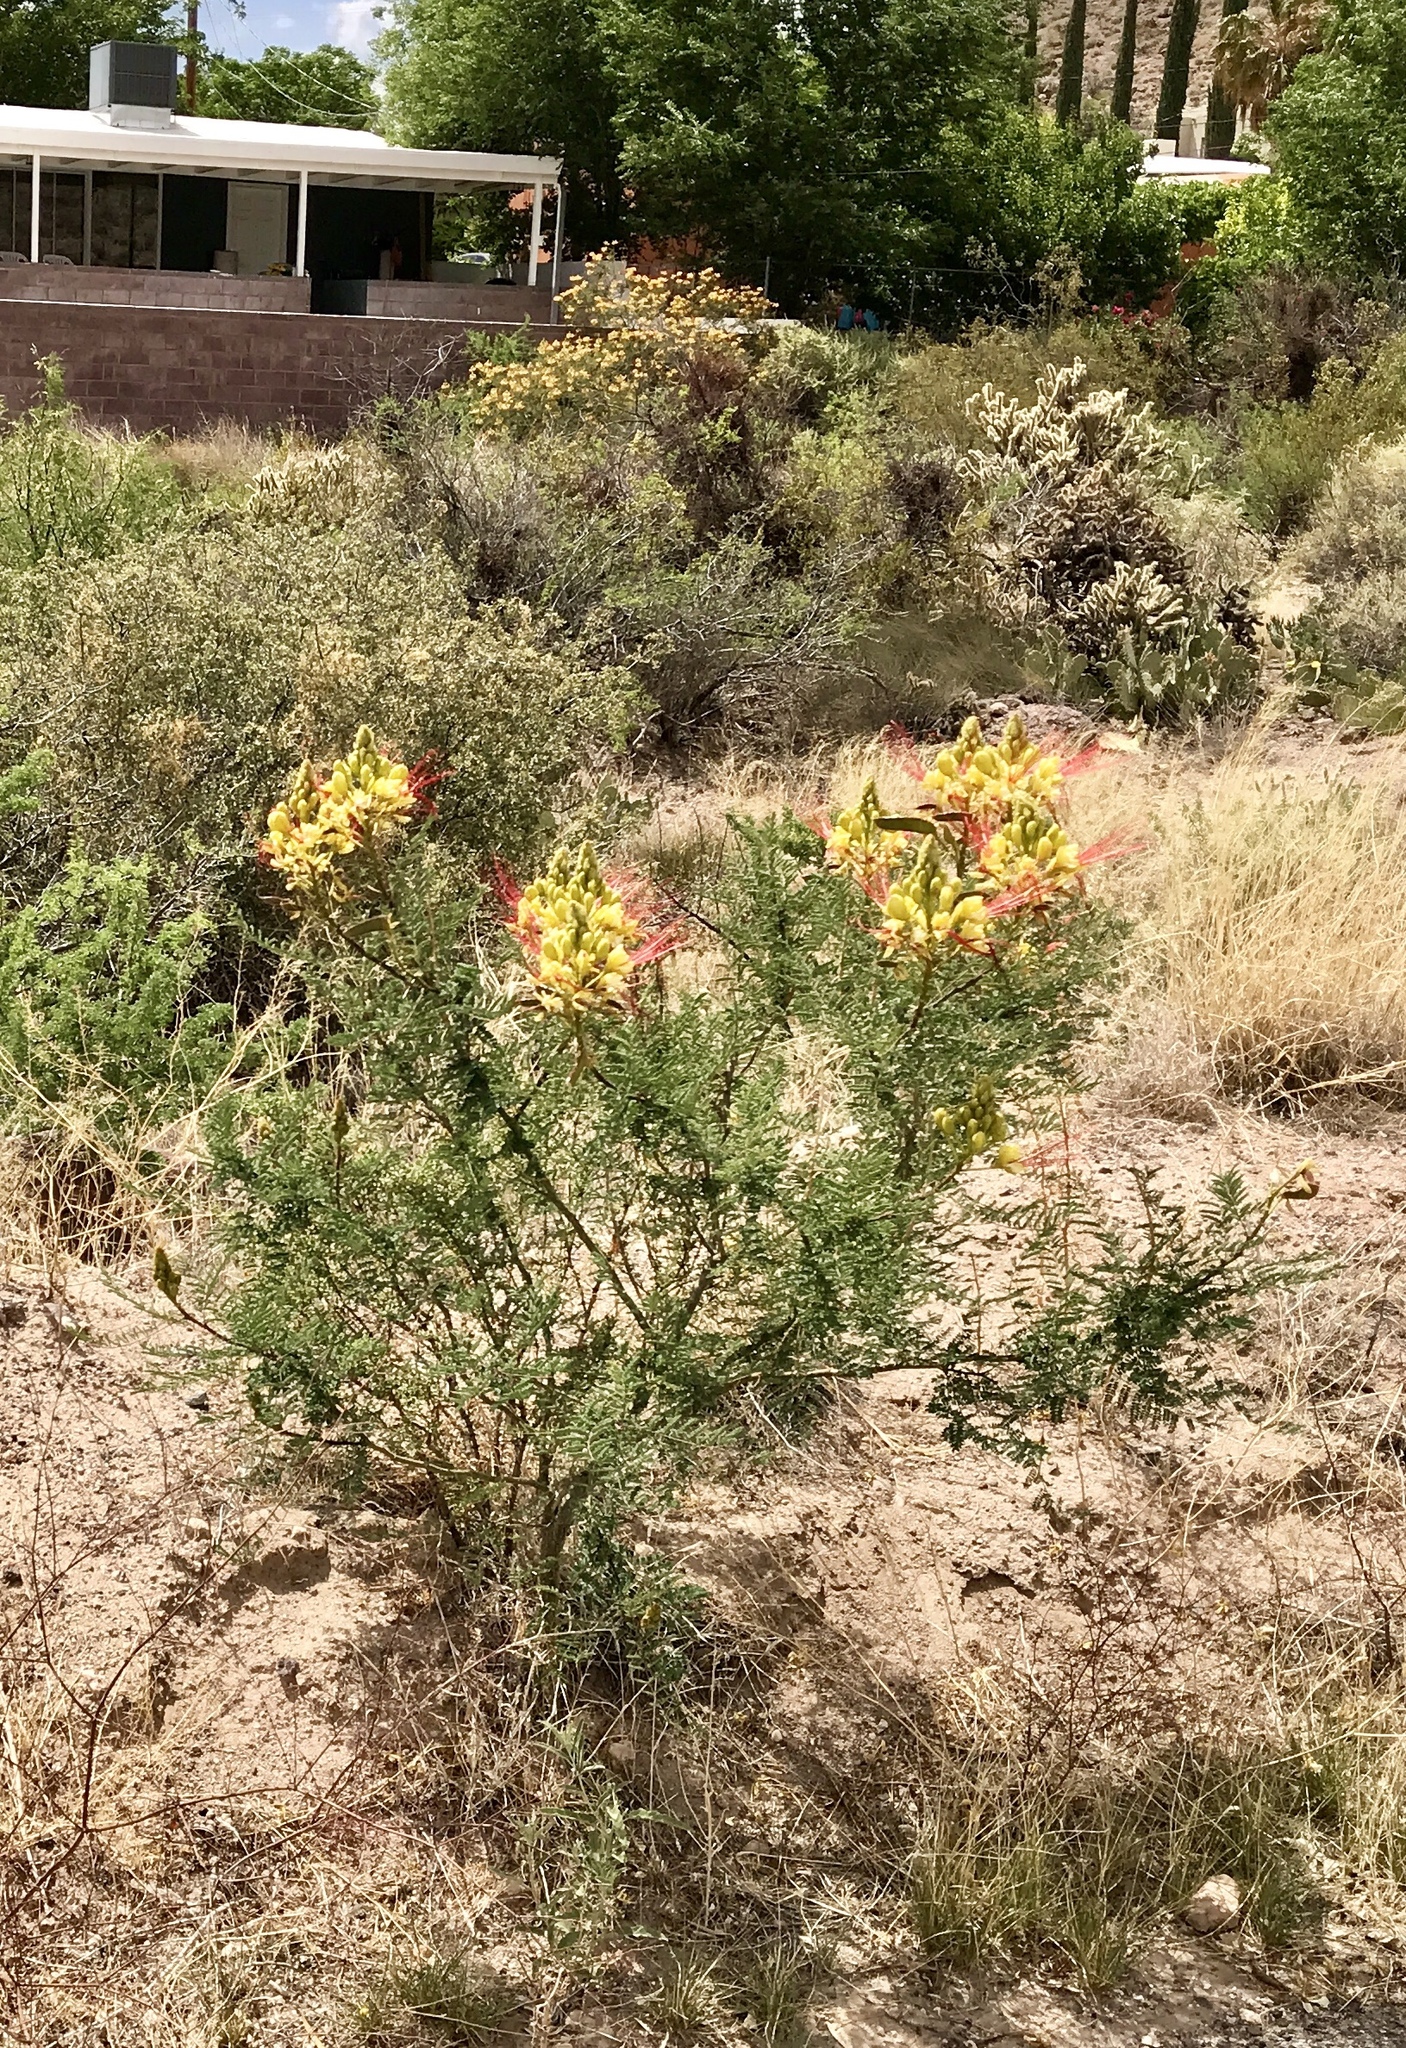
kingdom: Plantae
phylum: Tracheophyta
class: Magnoliopsida
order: Fabales
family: Fabaceae
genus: Erythrostemon
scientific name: Erythrostemon gilliesii
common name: Bird-of-paradise shrub
